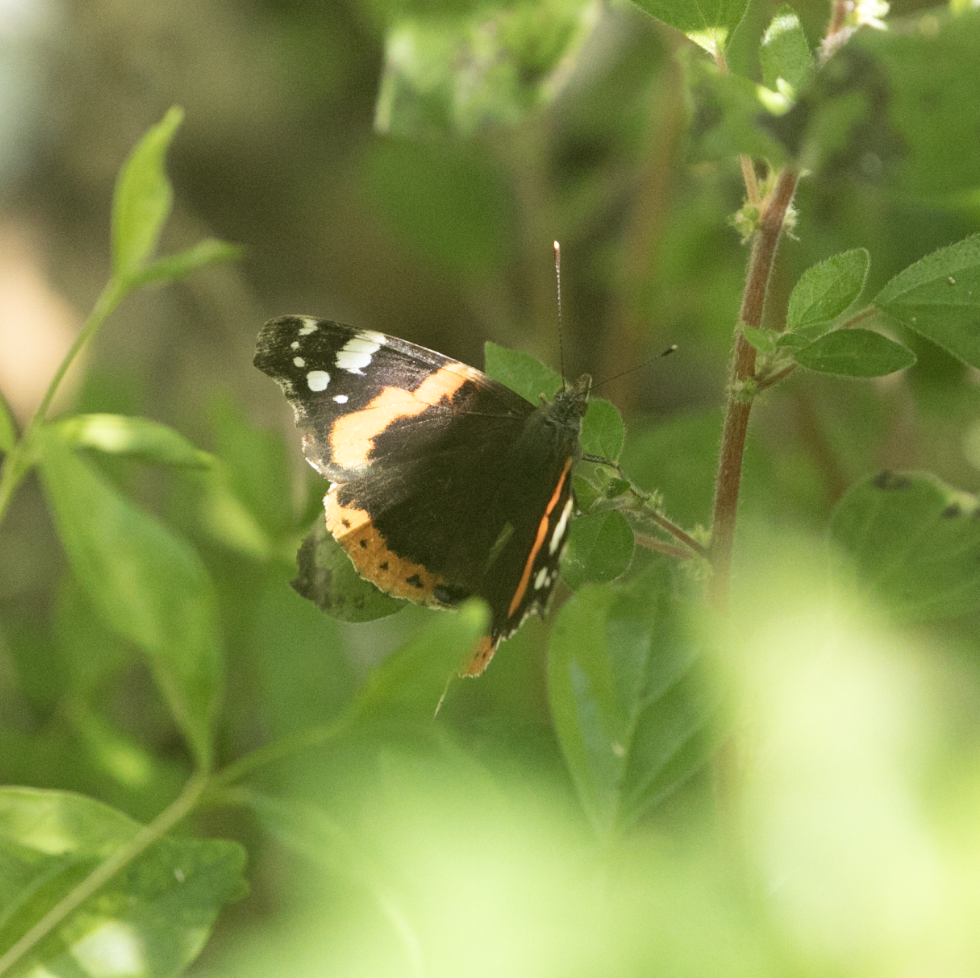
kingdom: Animalia
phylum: Arthropoda
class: Insecta
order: Lepidoptera
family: Nymphalidae
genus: Vanessa
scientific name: Vanessa atalanta
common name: Red admiral
